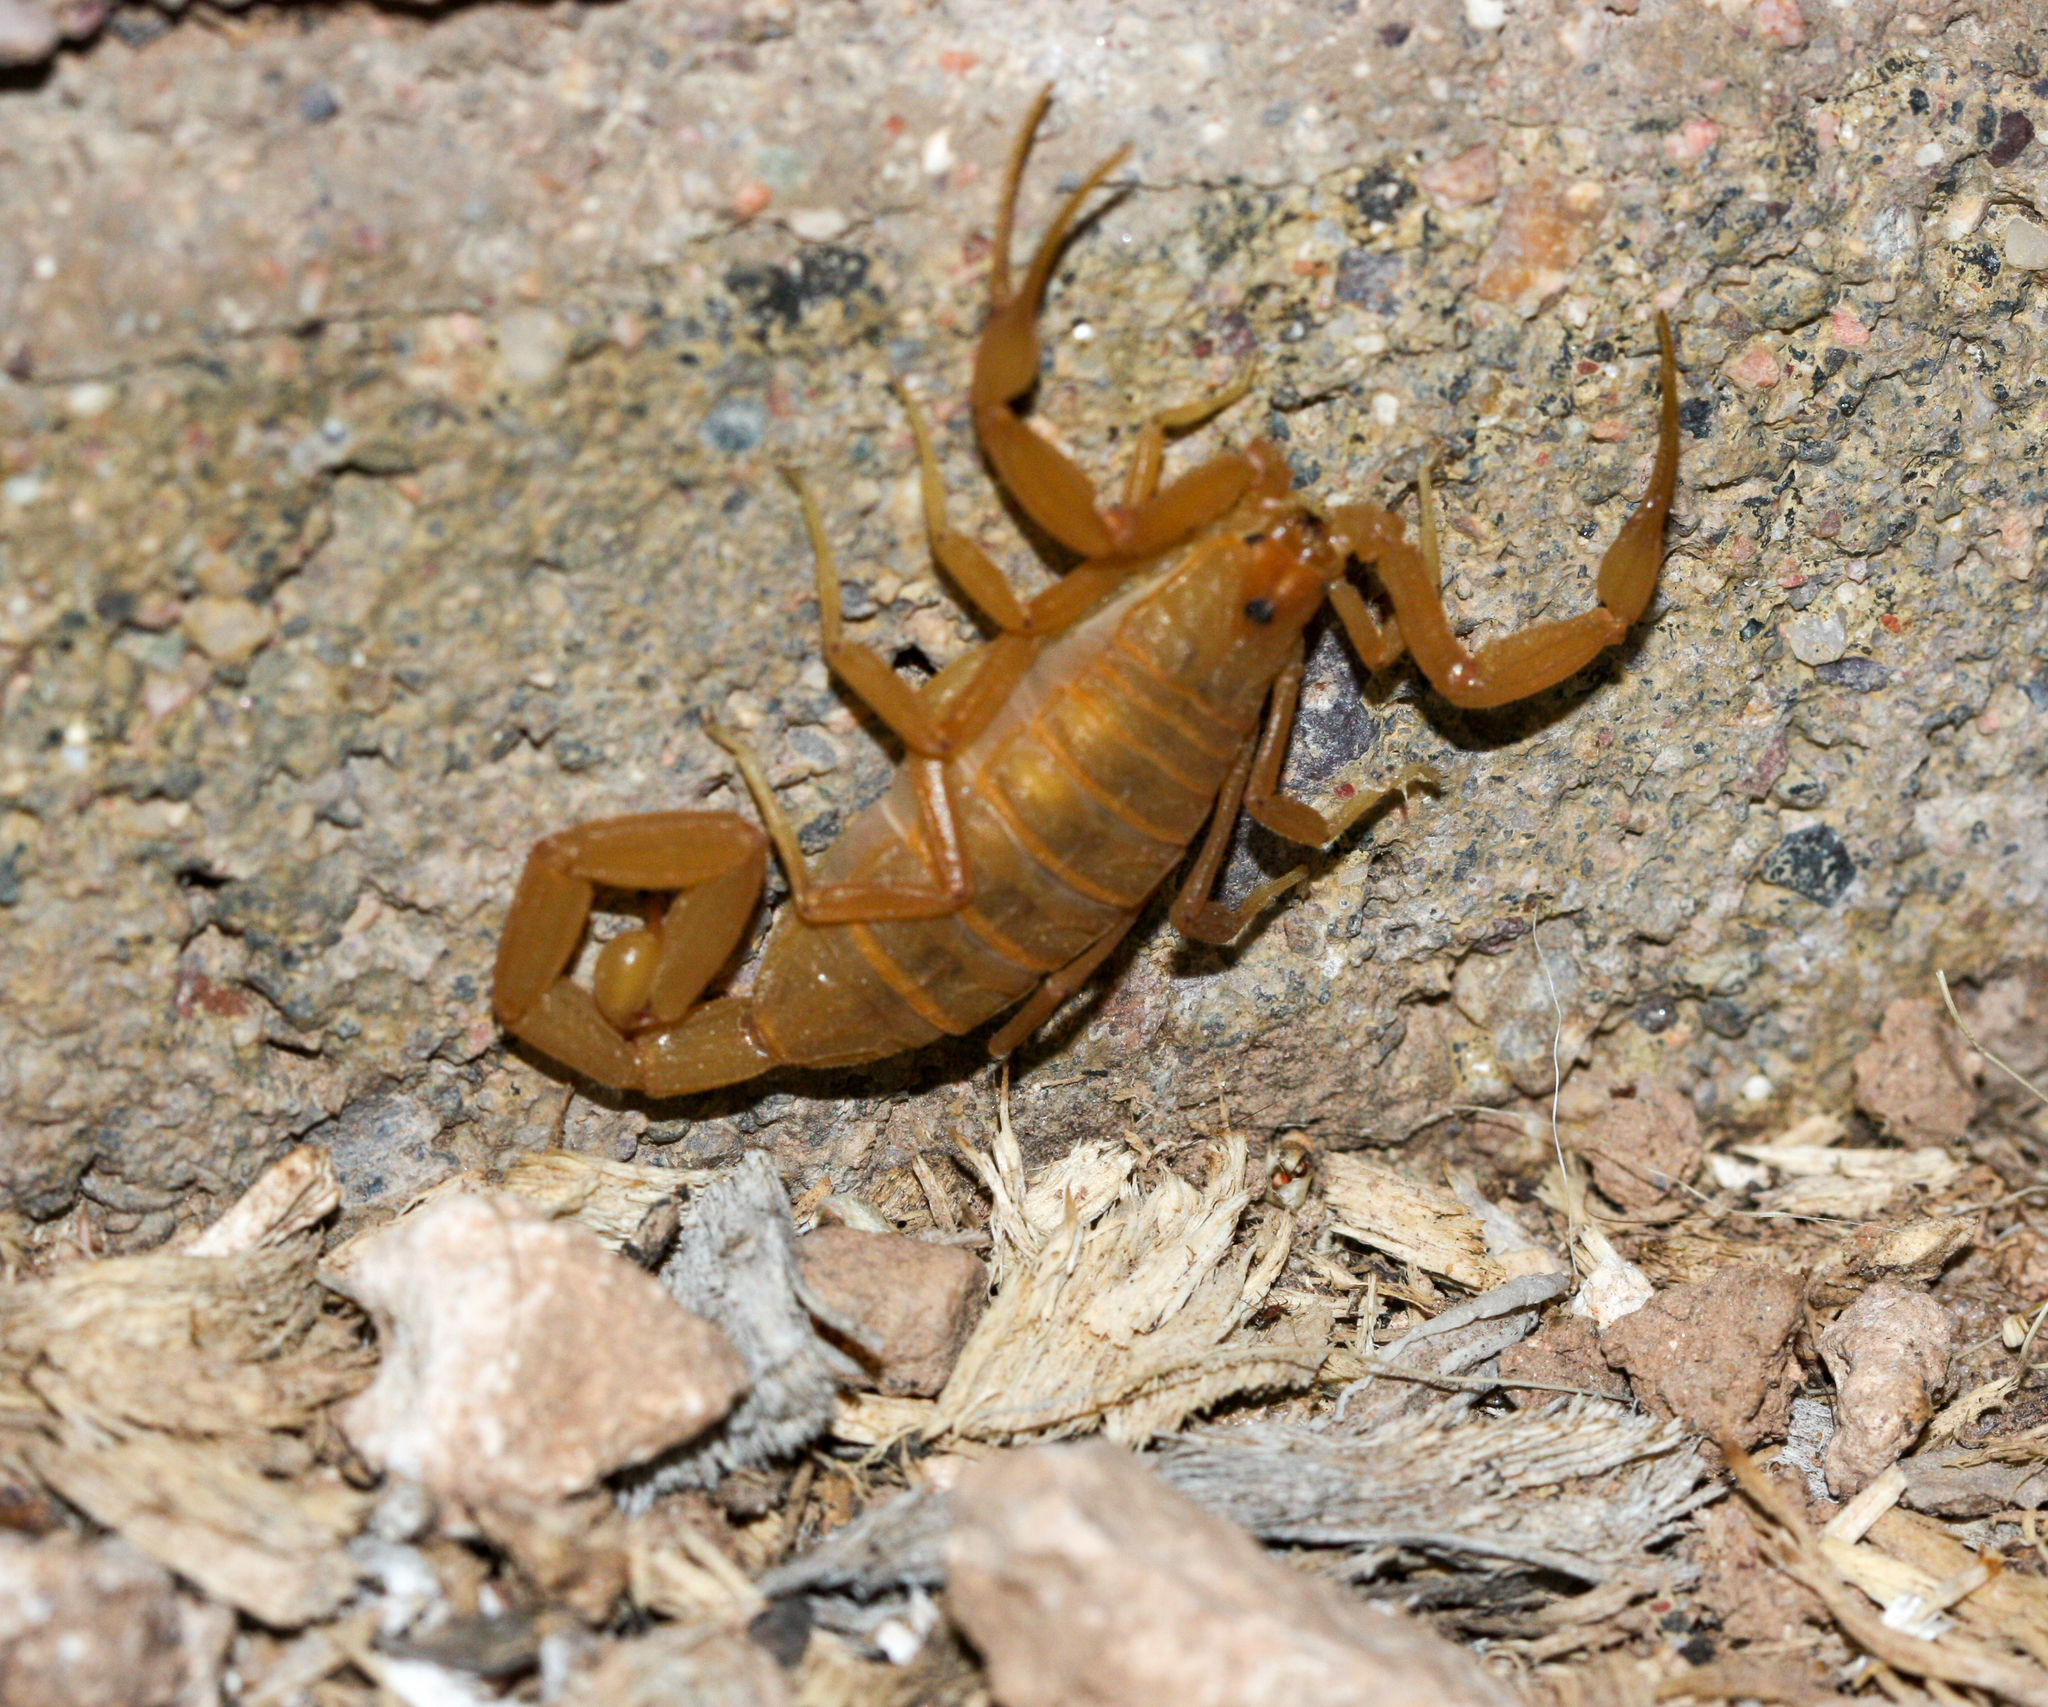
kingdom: Animalia
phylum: Arthropoda
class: Arachnida
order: Scorpiones
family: Buthidae
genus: Centruroides
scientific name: Centruroides sculpturatus
